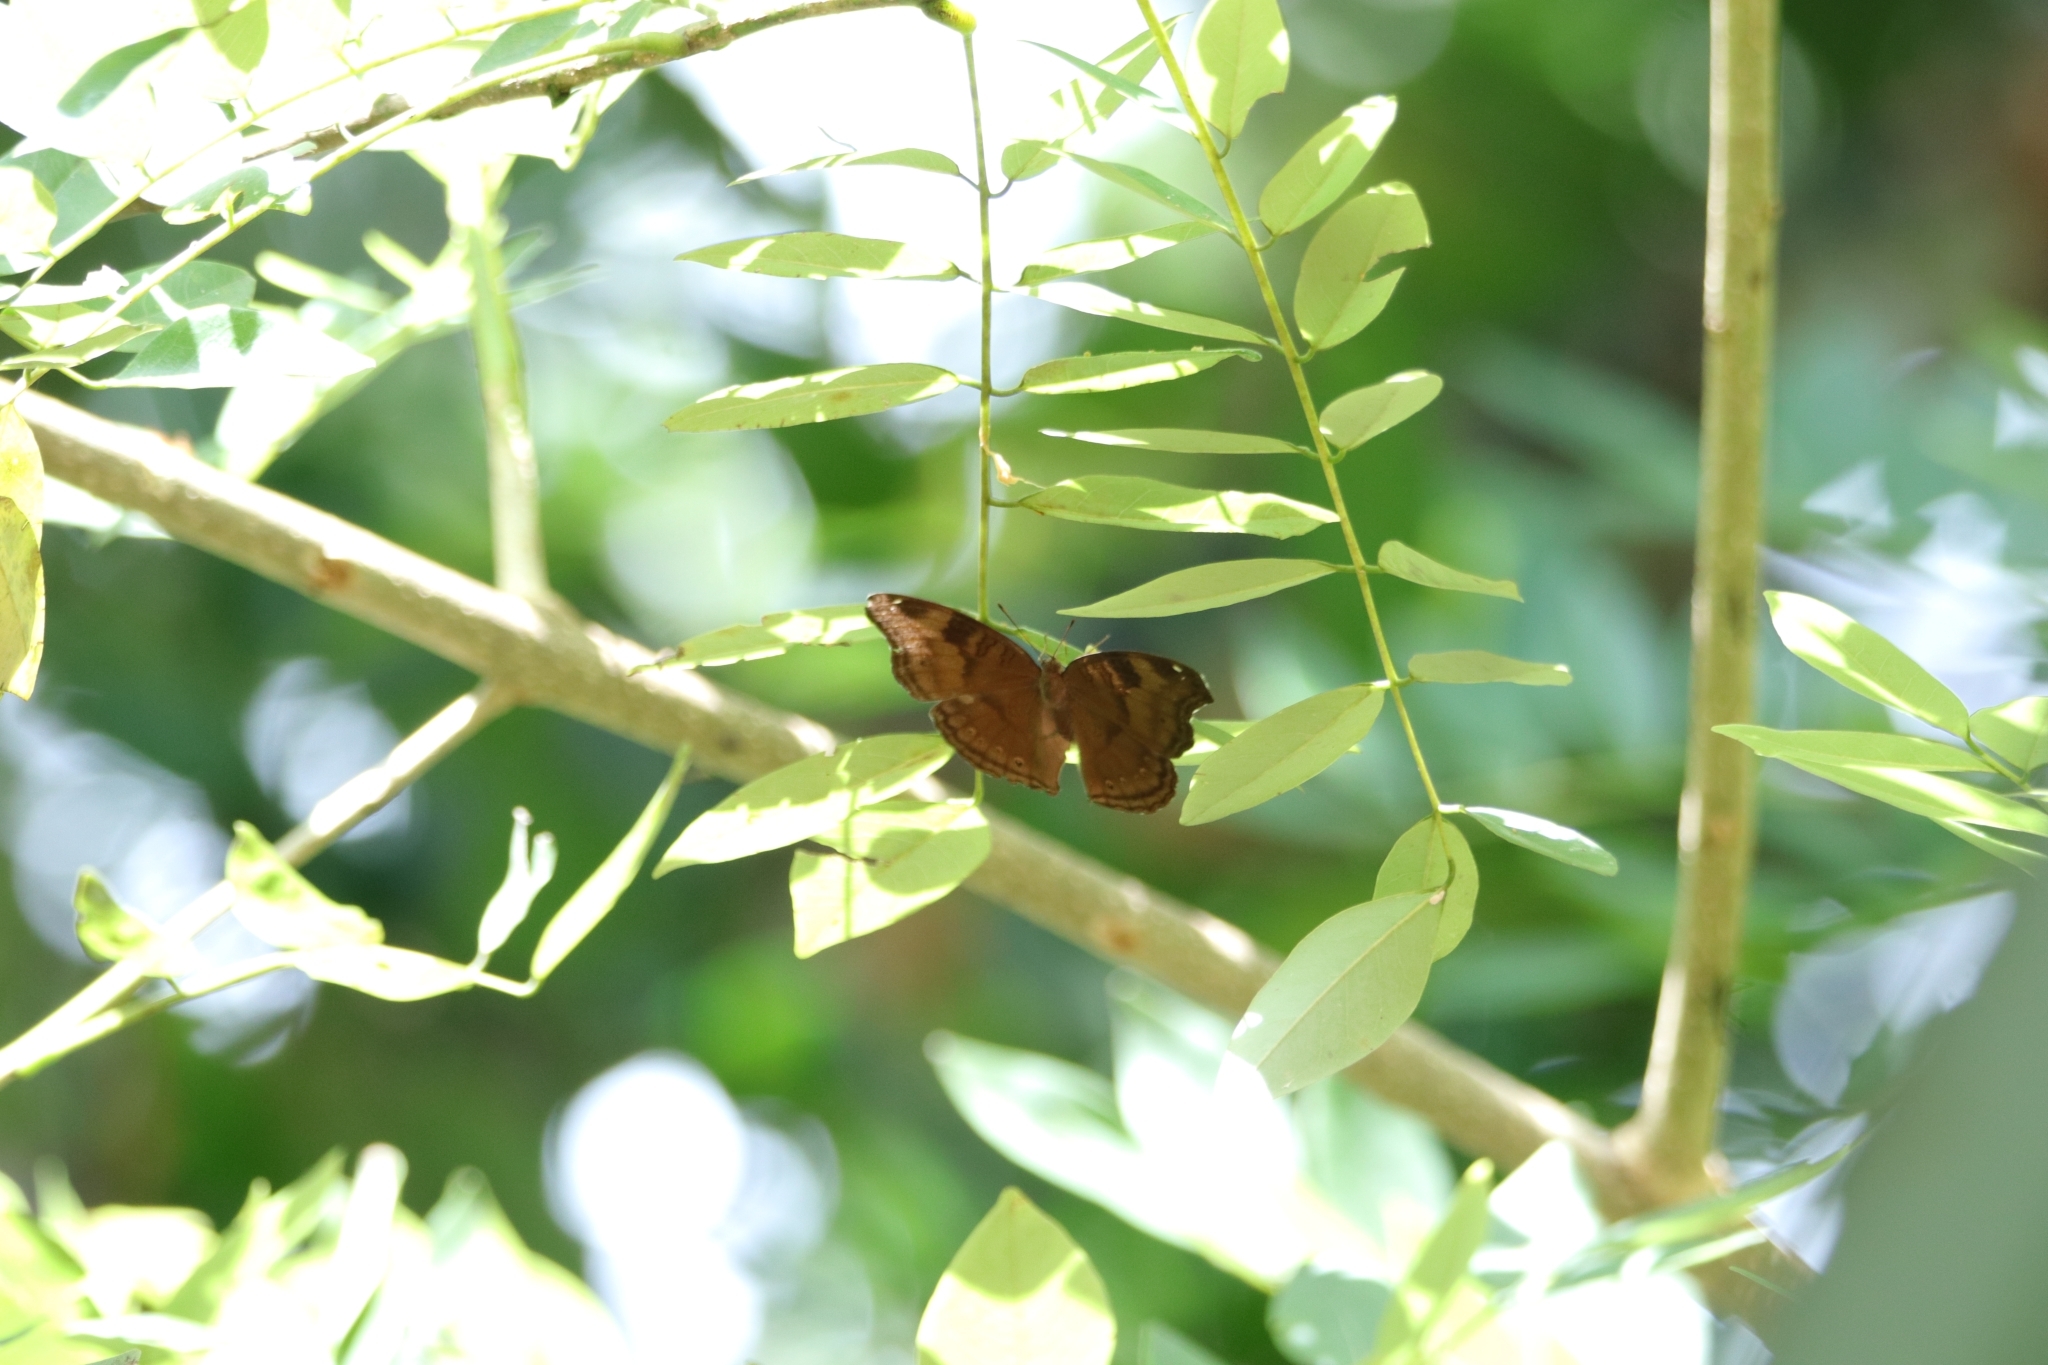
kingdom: Animalia
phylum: Arthropoda
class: Insecta
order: Lepidoptera
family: Nymphalidae
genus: Junonia
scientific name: Junonia iphita
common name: Chocolate pansy
